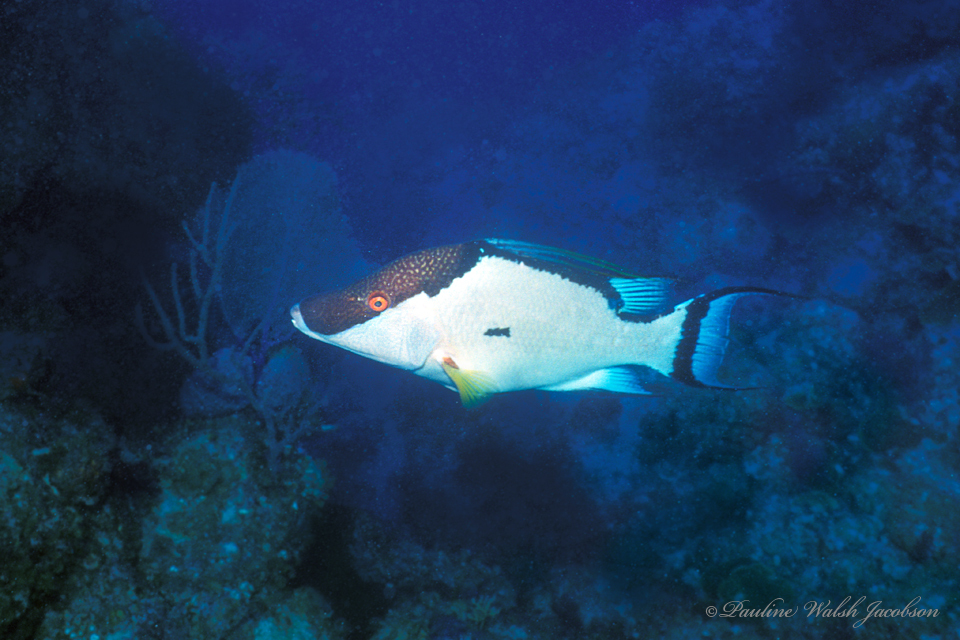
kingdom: Animalia
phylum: Chordata
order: Perciformes
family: Labridae
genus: Lachnolaimus
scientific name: Lachnolaimus maximus
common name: Hogfish
